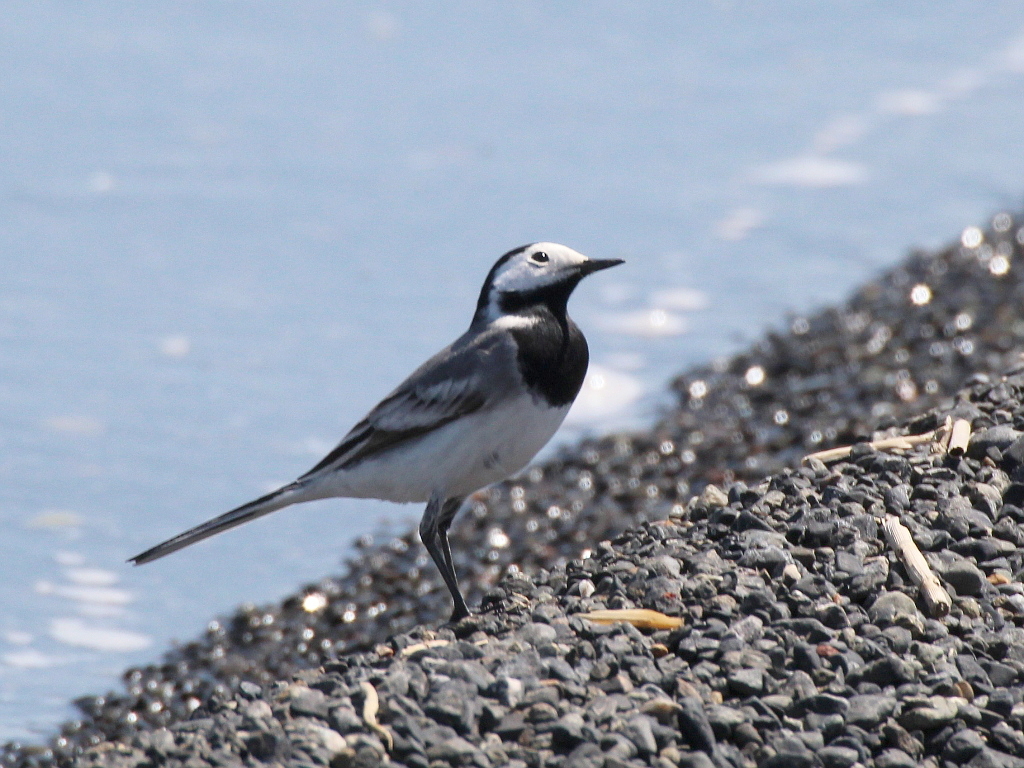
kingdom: Animalia
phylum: Chordata
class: Aves
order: Passeriformes
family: Motacillidae
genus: Motacilla
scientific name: Motacilla alba
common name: White wagtail
